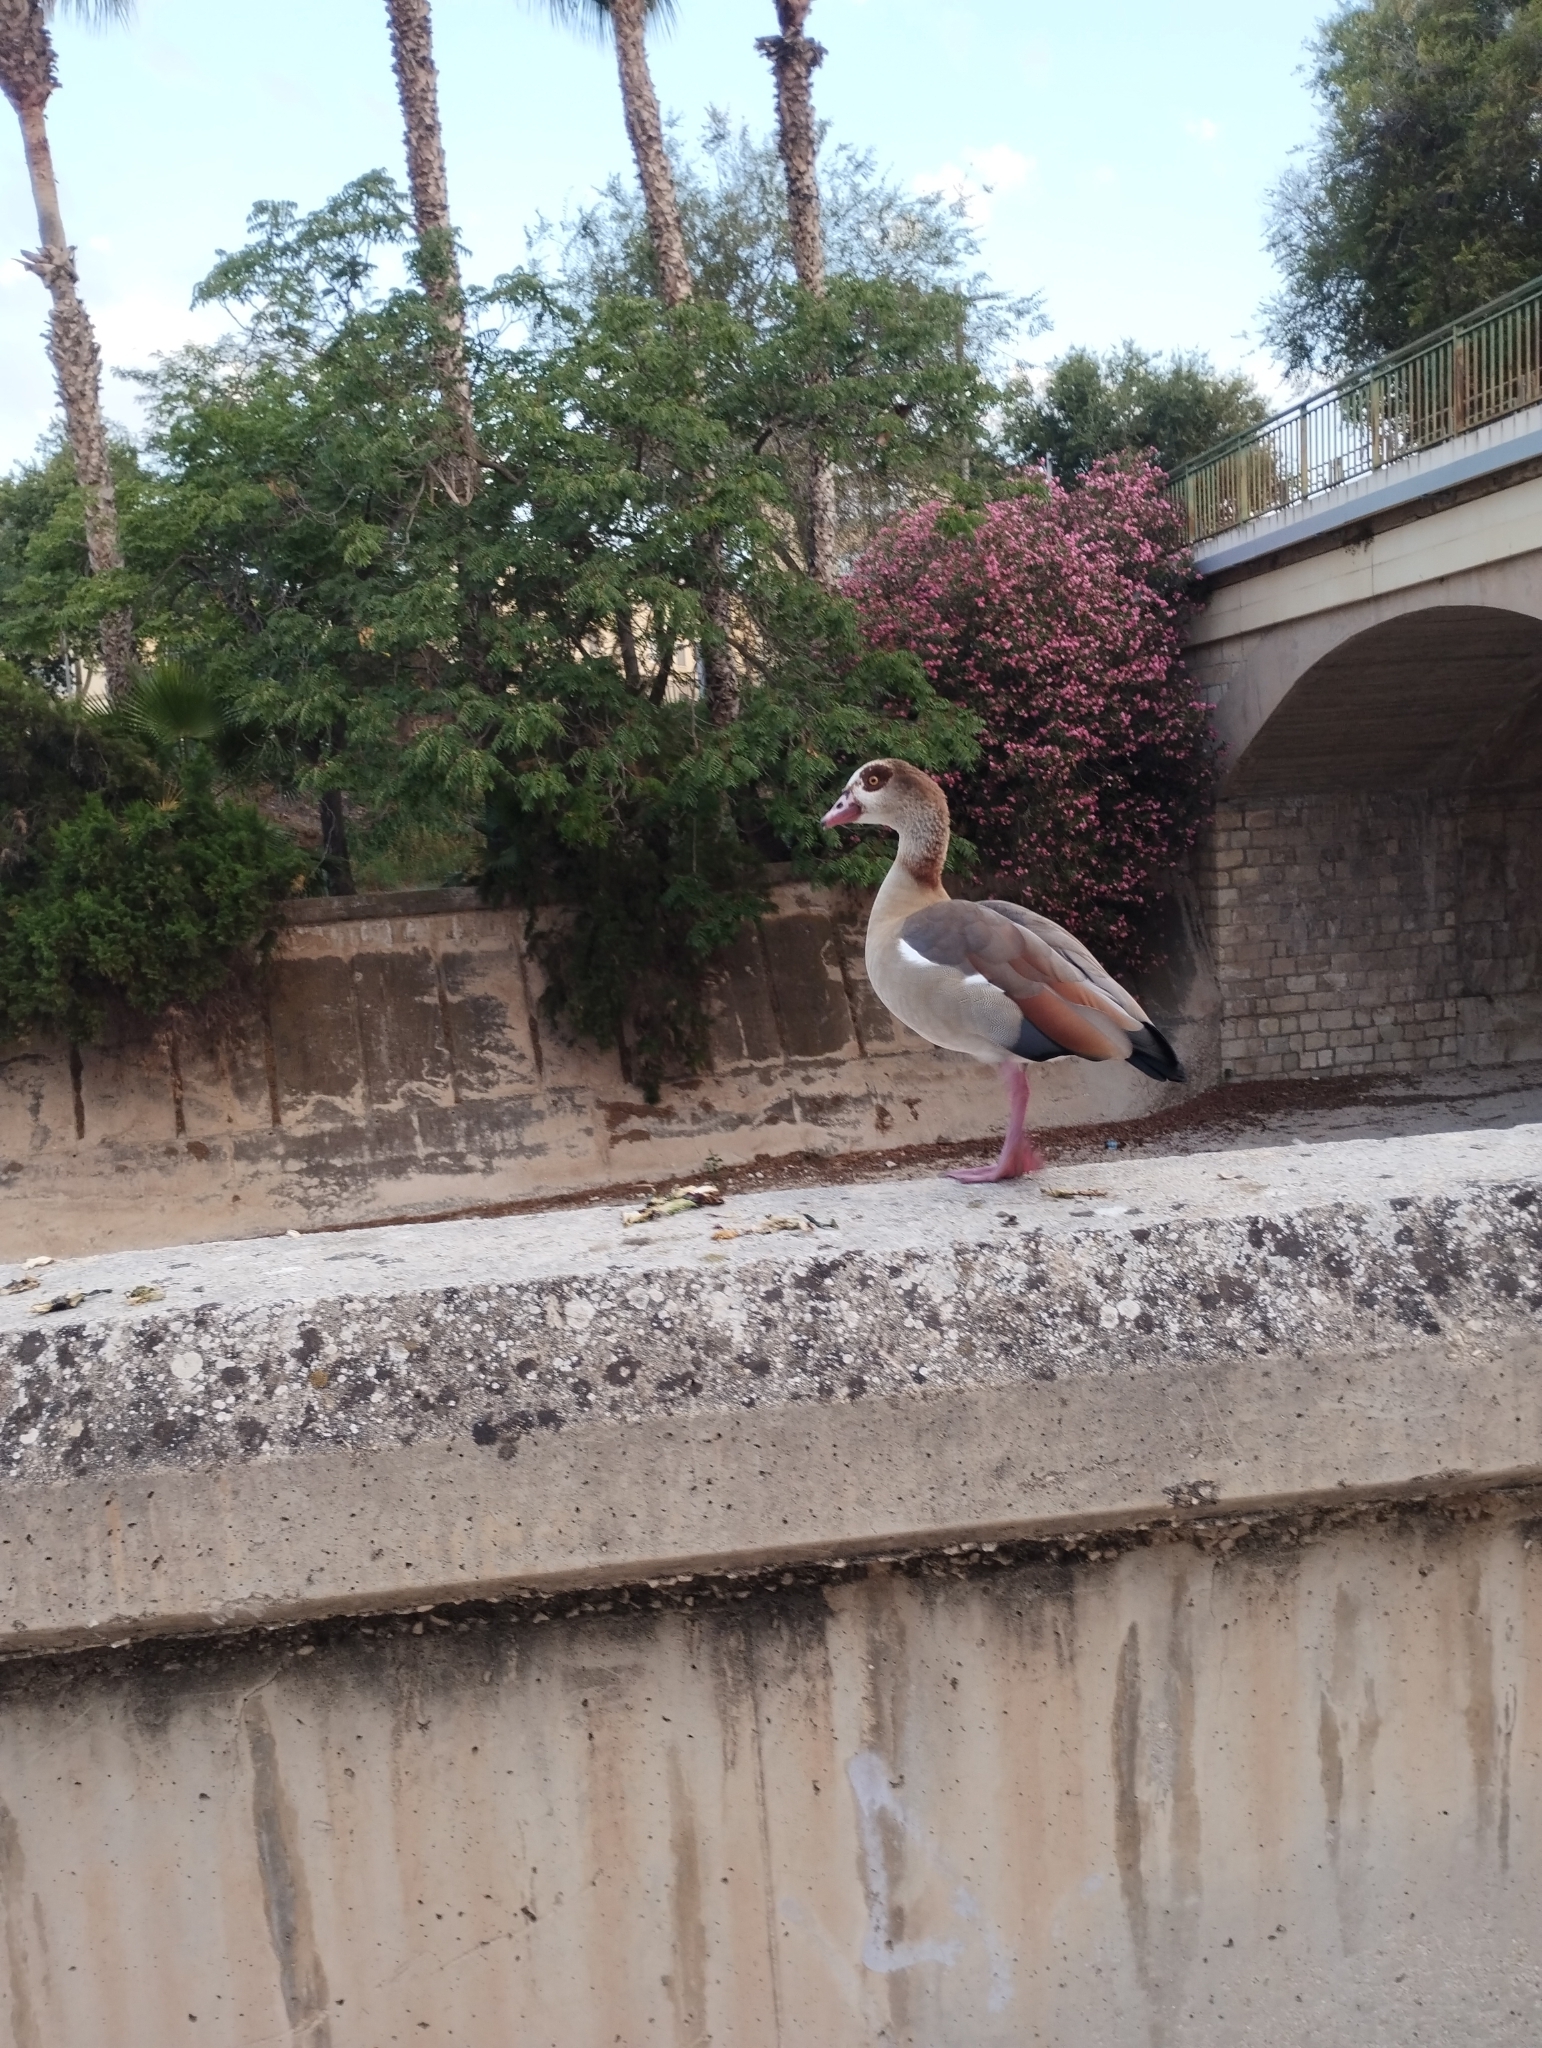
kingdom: Animalia
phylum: Chordata
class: Aves
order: Anseriformes
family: Anatidae
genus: Alopochen
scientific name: Alopochen aegyptiaca
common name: Egyptian goose
